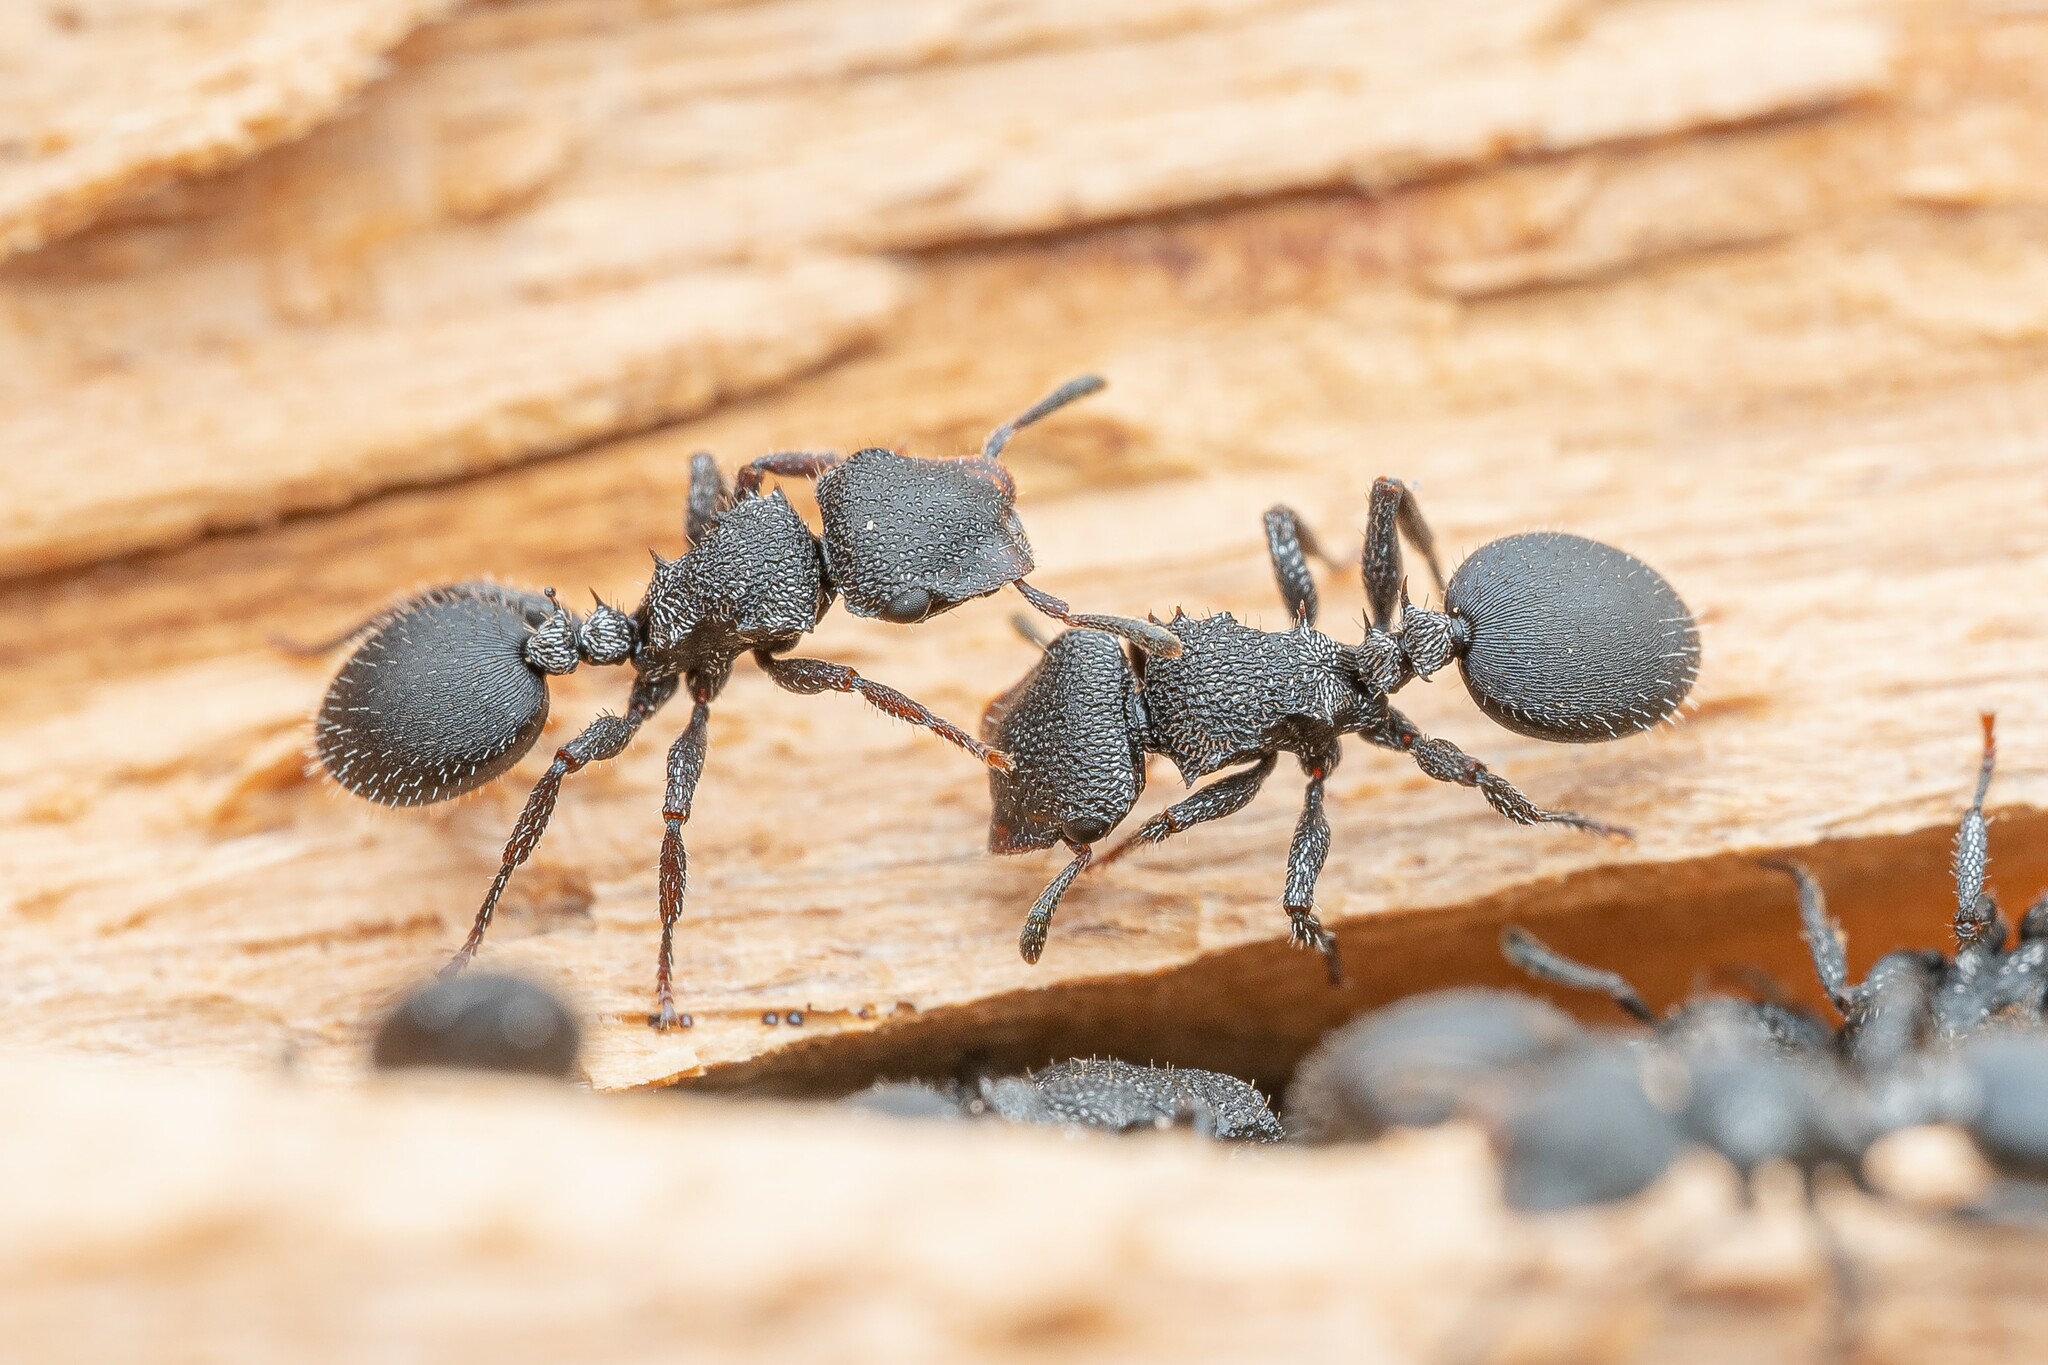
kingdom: Animalia
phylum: Arthropoda
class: Insecta
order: Hymenoptera
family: Formicidae
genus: Cephalotes
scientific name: Cephalotes rohweri
